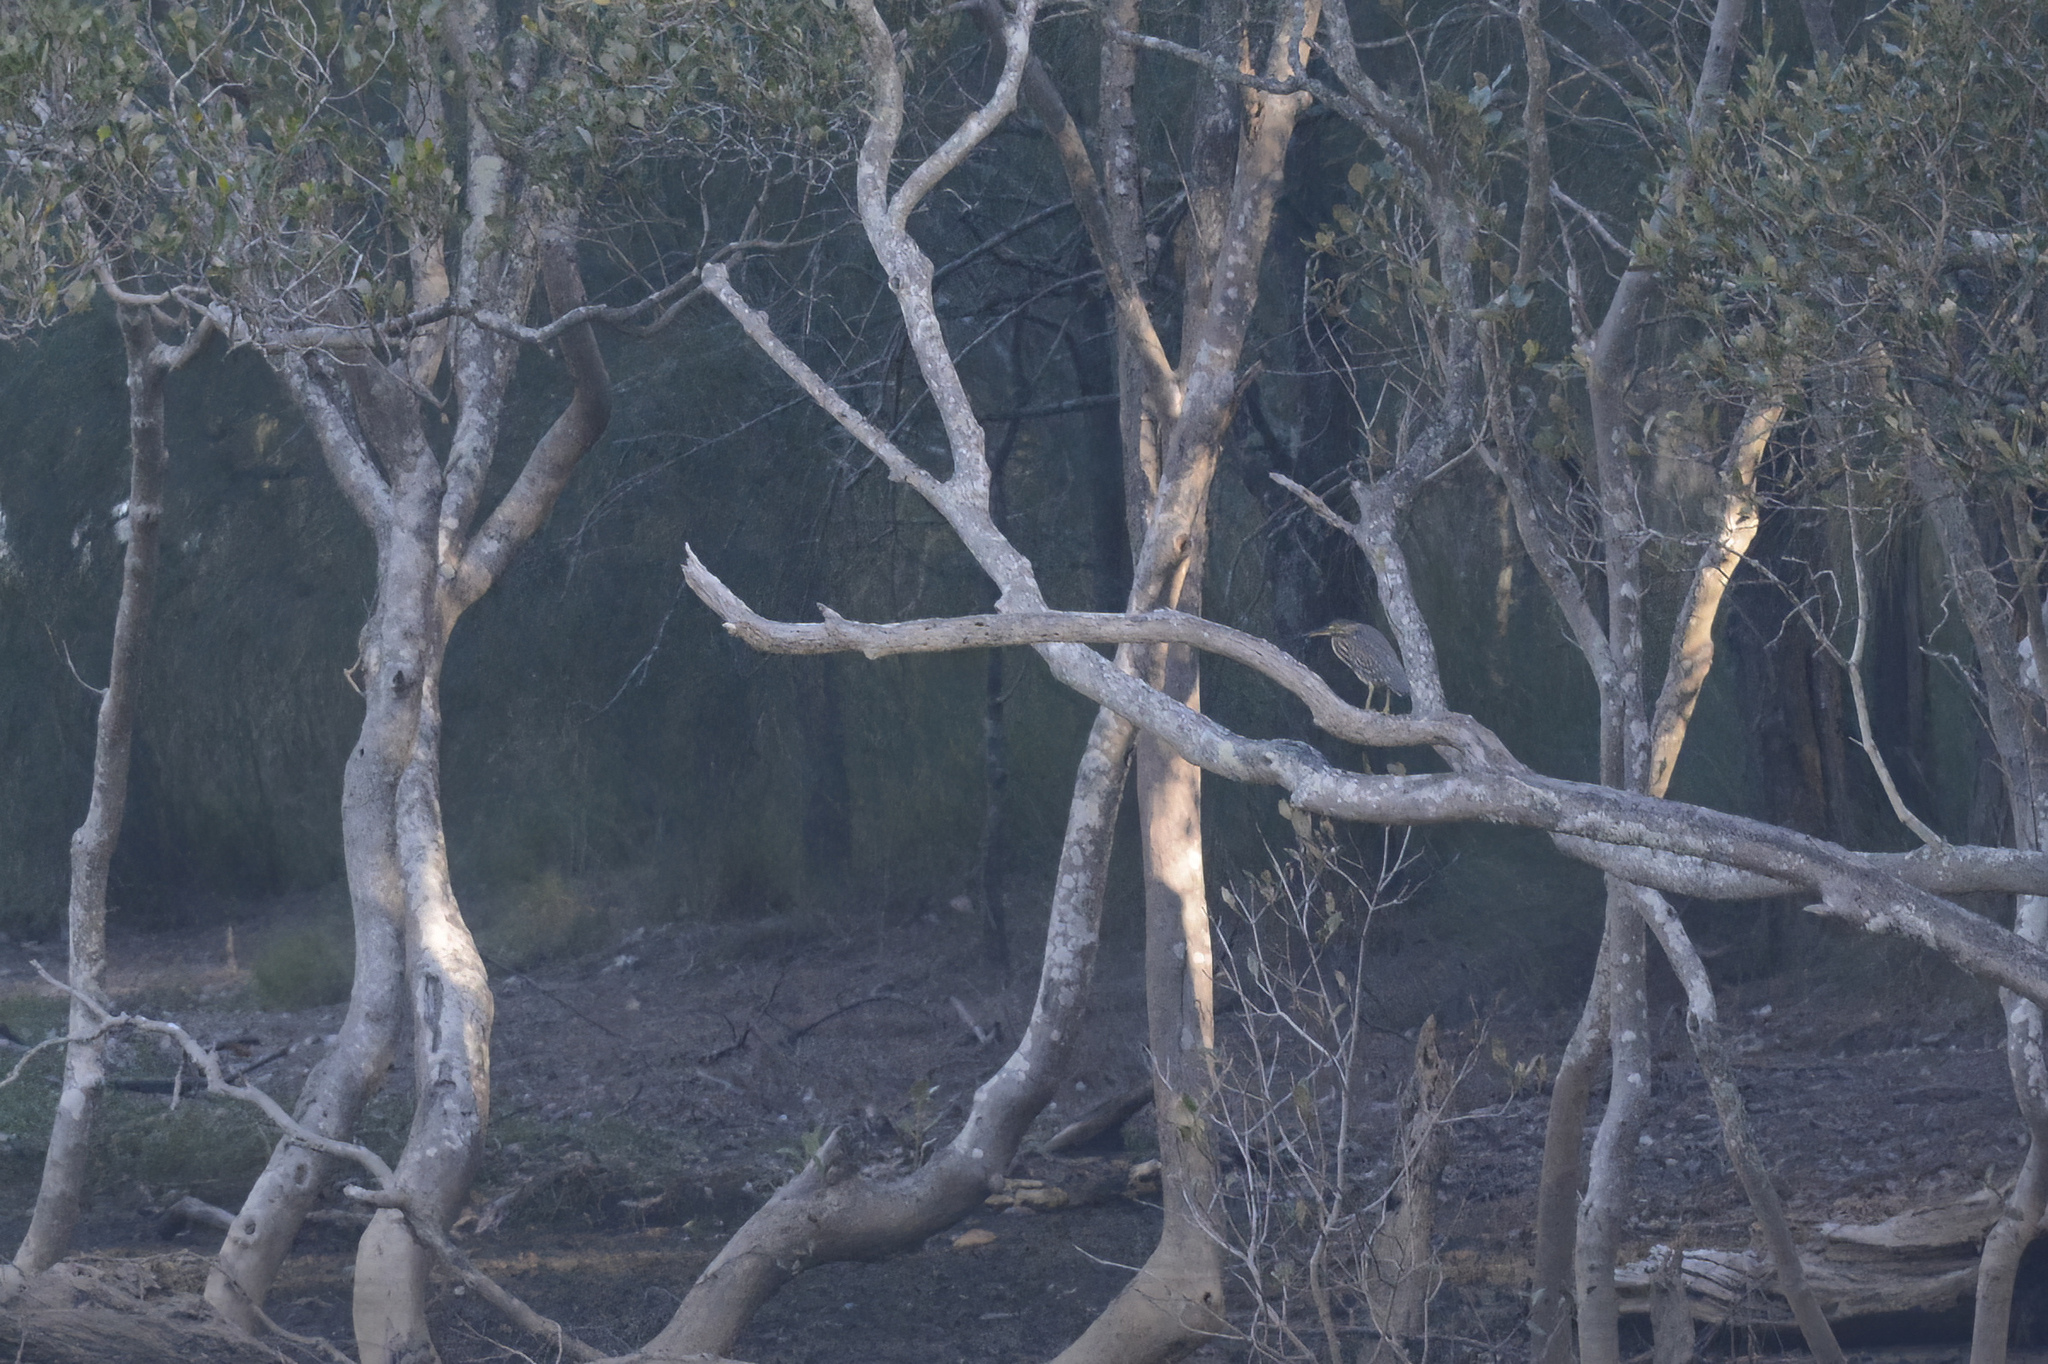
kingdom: Animalia
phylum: Chordata
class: Aves
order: Pelecaniformes
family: Ardeidae
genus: Butorides
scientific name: Butorides striata
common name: Striated heron
